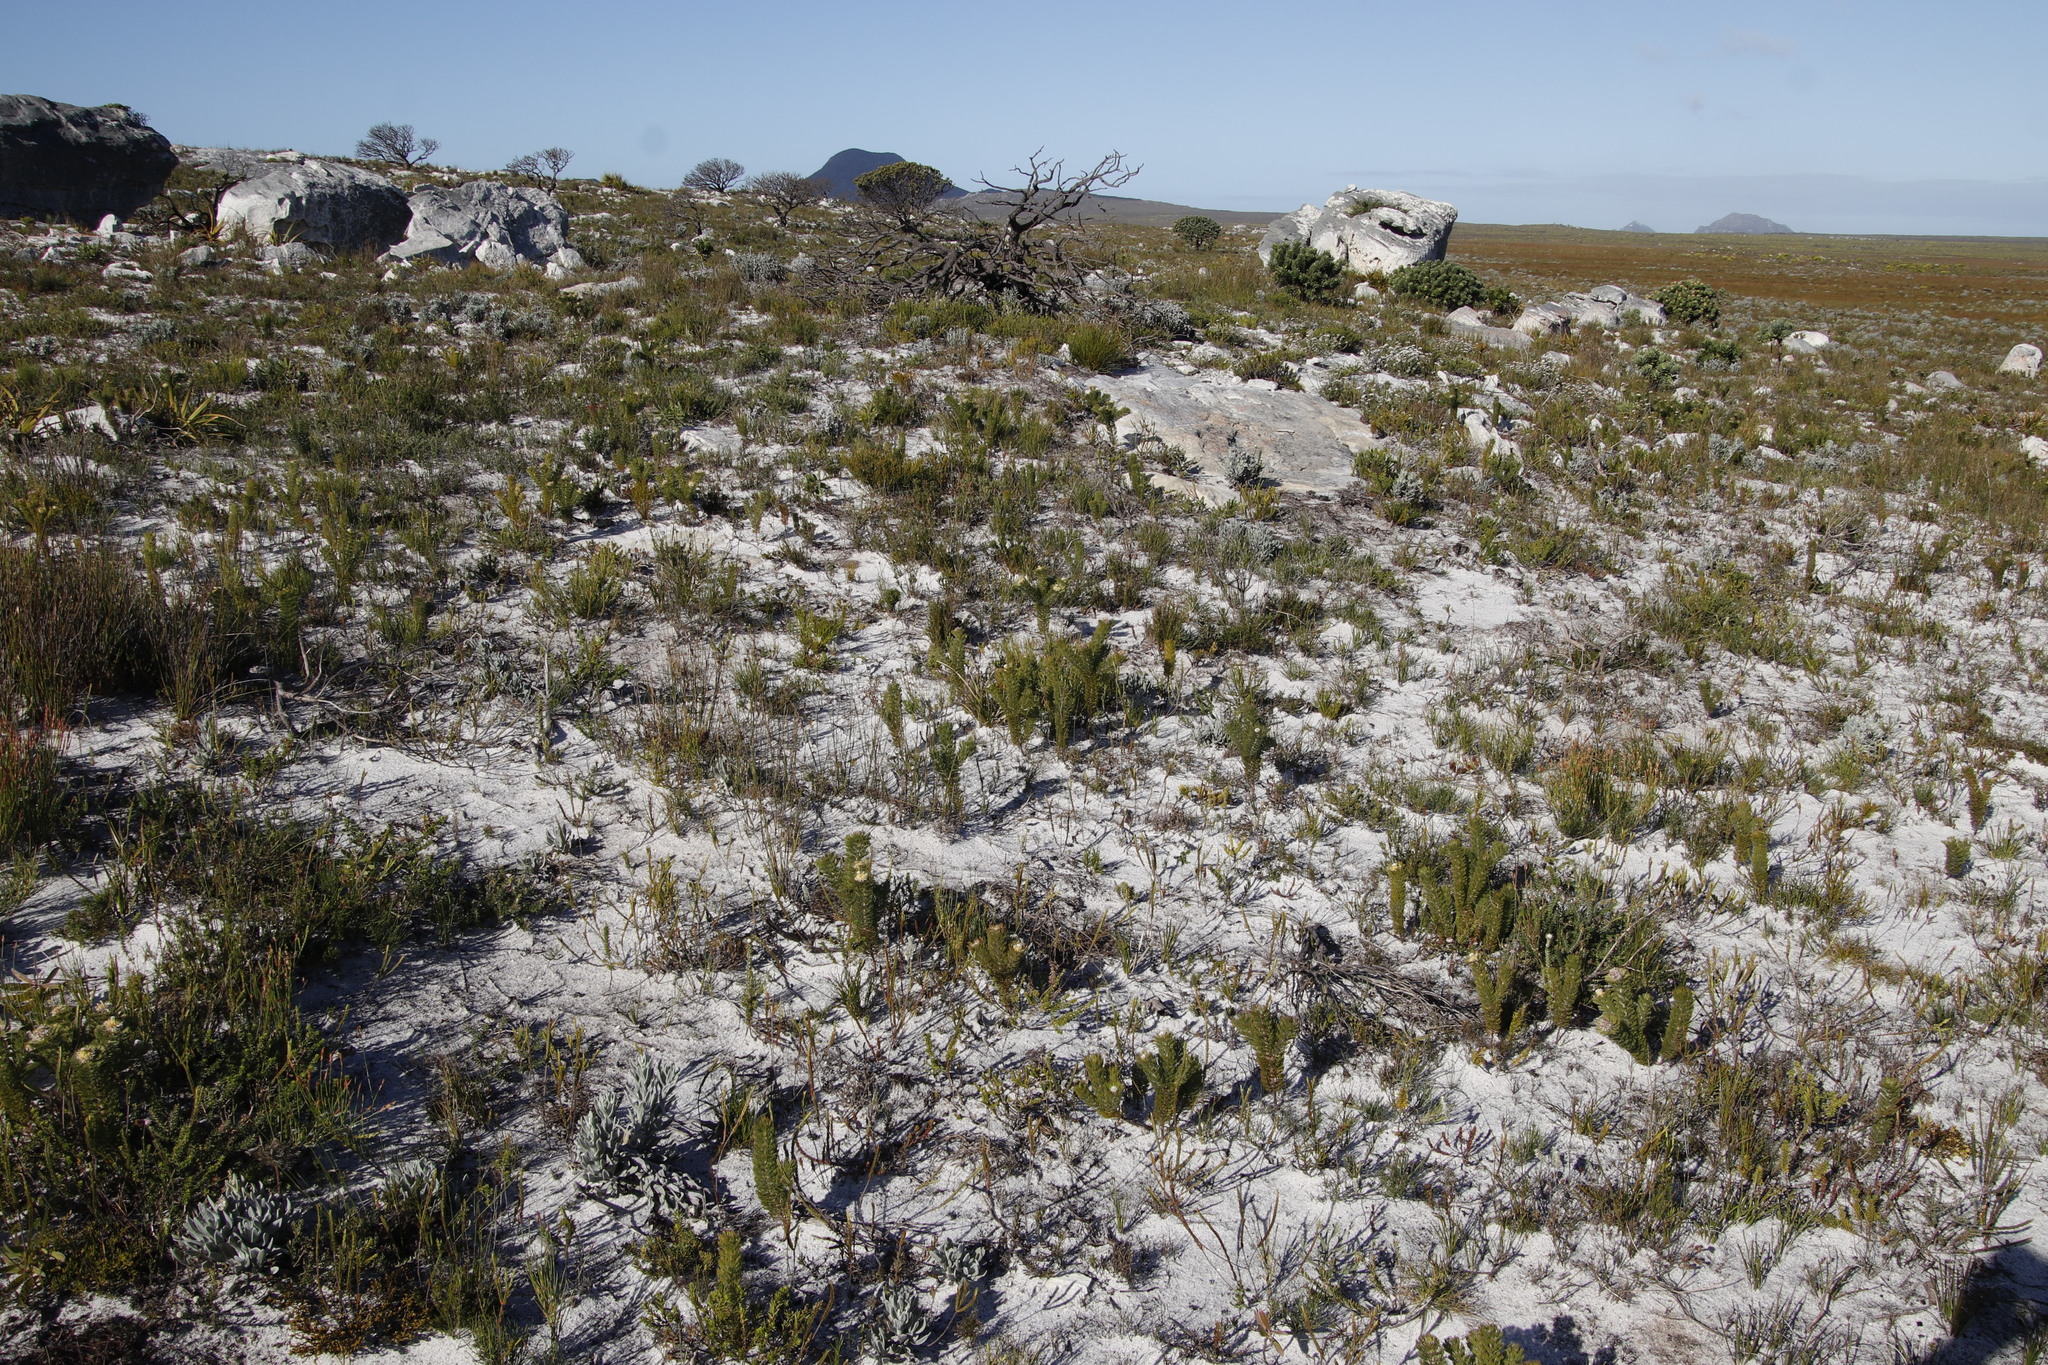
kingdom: Plantae
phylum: Tracheophyta
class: Magnoliopsida
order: Proteales
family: Proteaceae
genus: Serruria
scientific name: Serruria villosa
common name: Golden spiderhead
